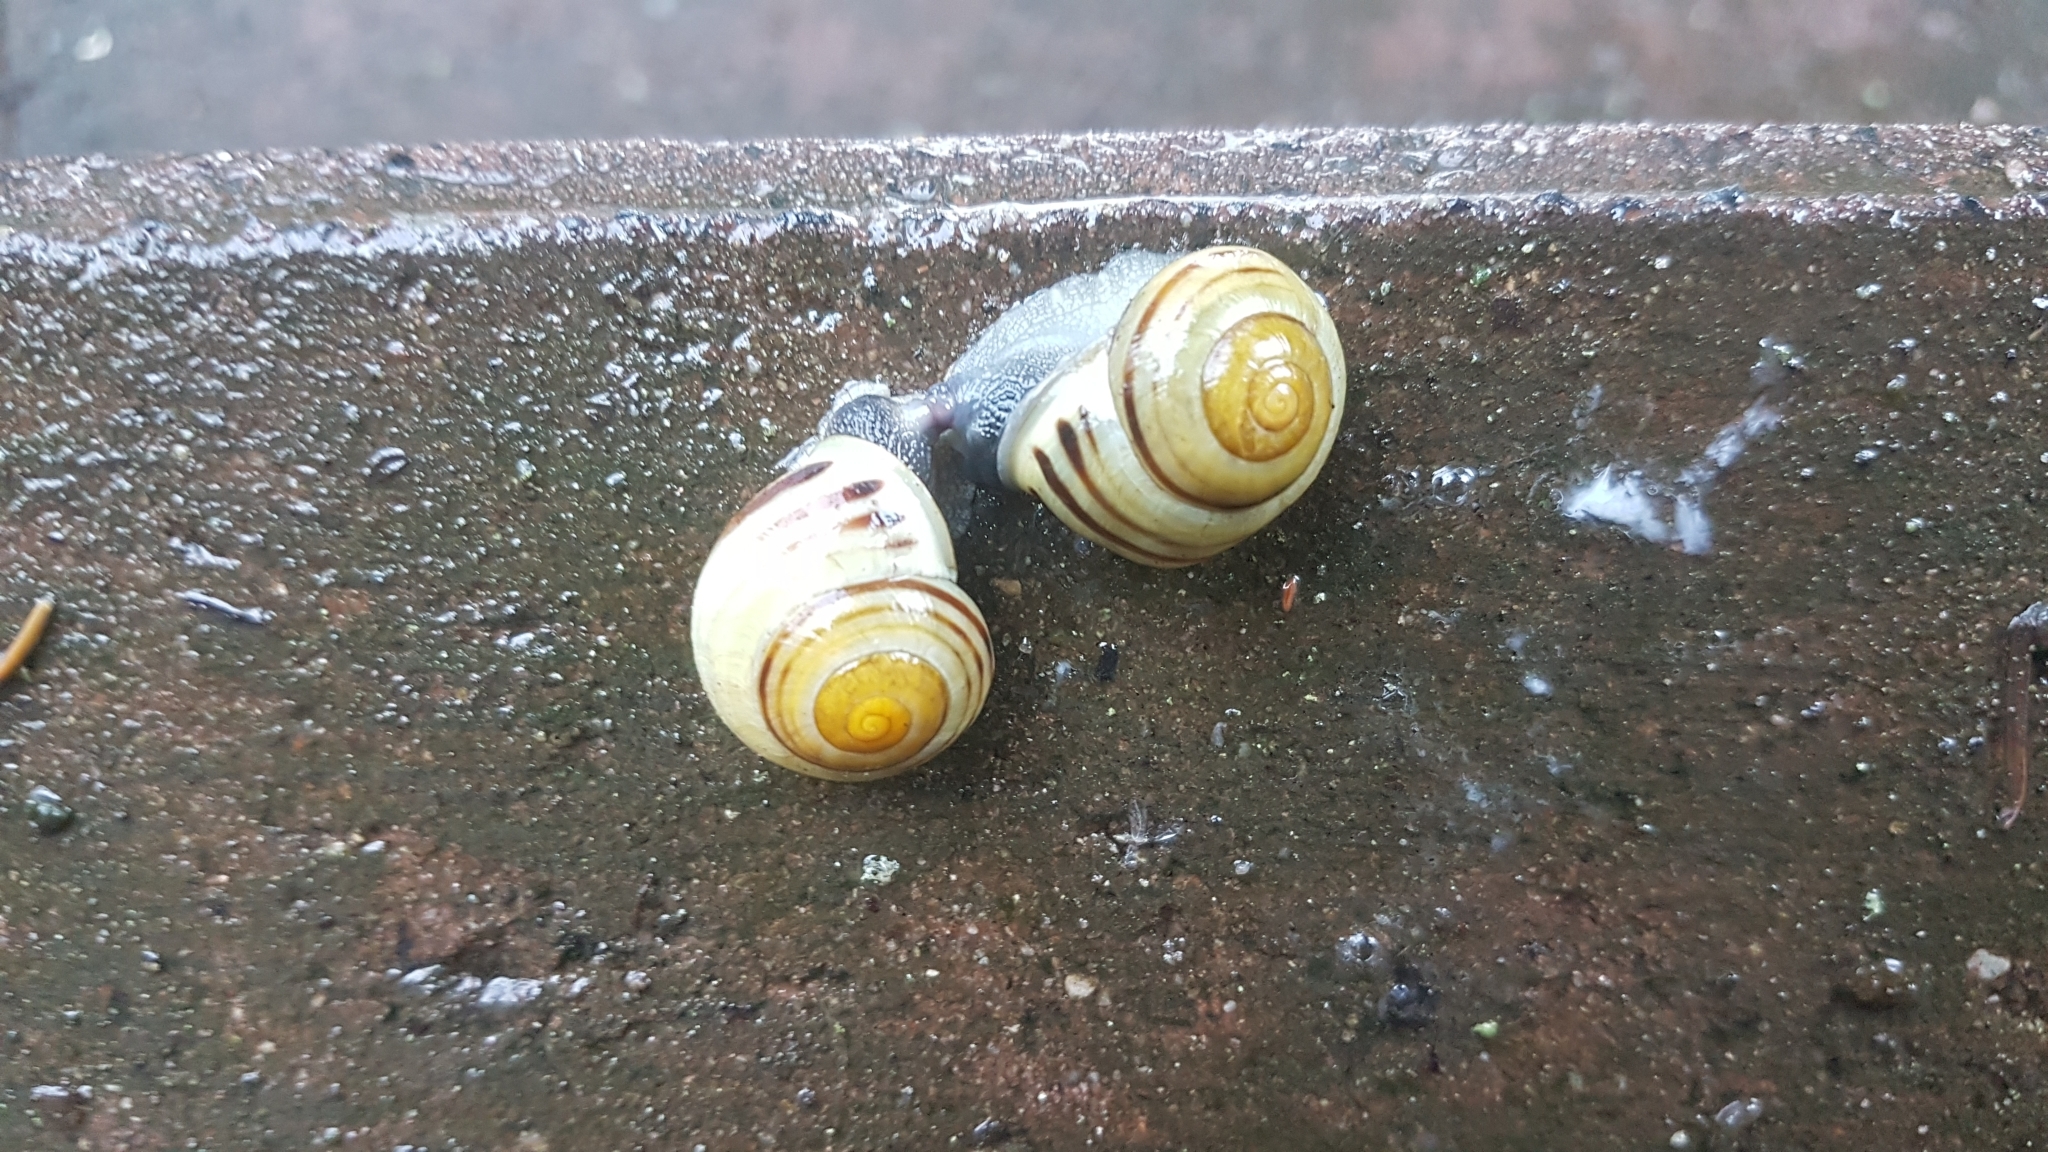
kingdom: Animalia
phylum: Mollusca
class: Gastropoda
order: Stylommatophora
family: Helicidae
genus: Cepaea
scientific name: Cepaea hortensis
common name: White-lip gardensnail
